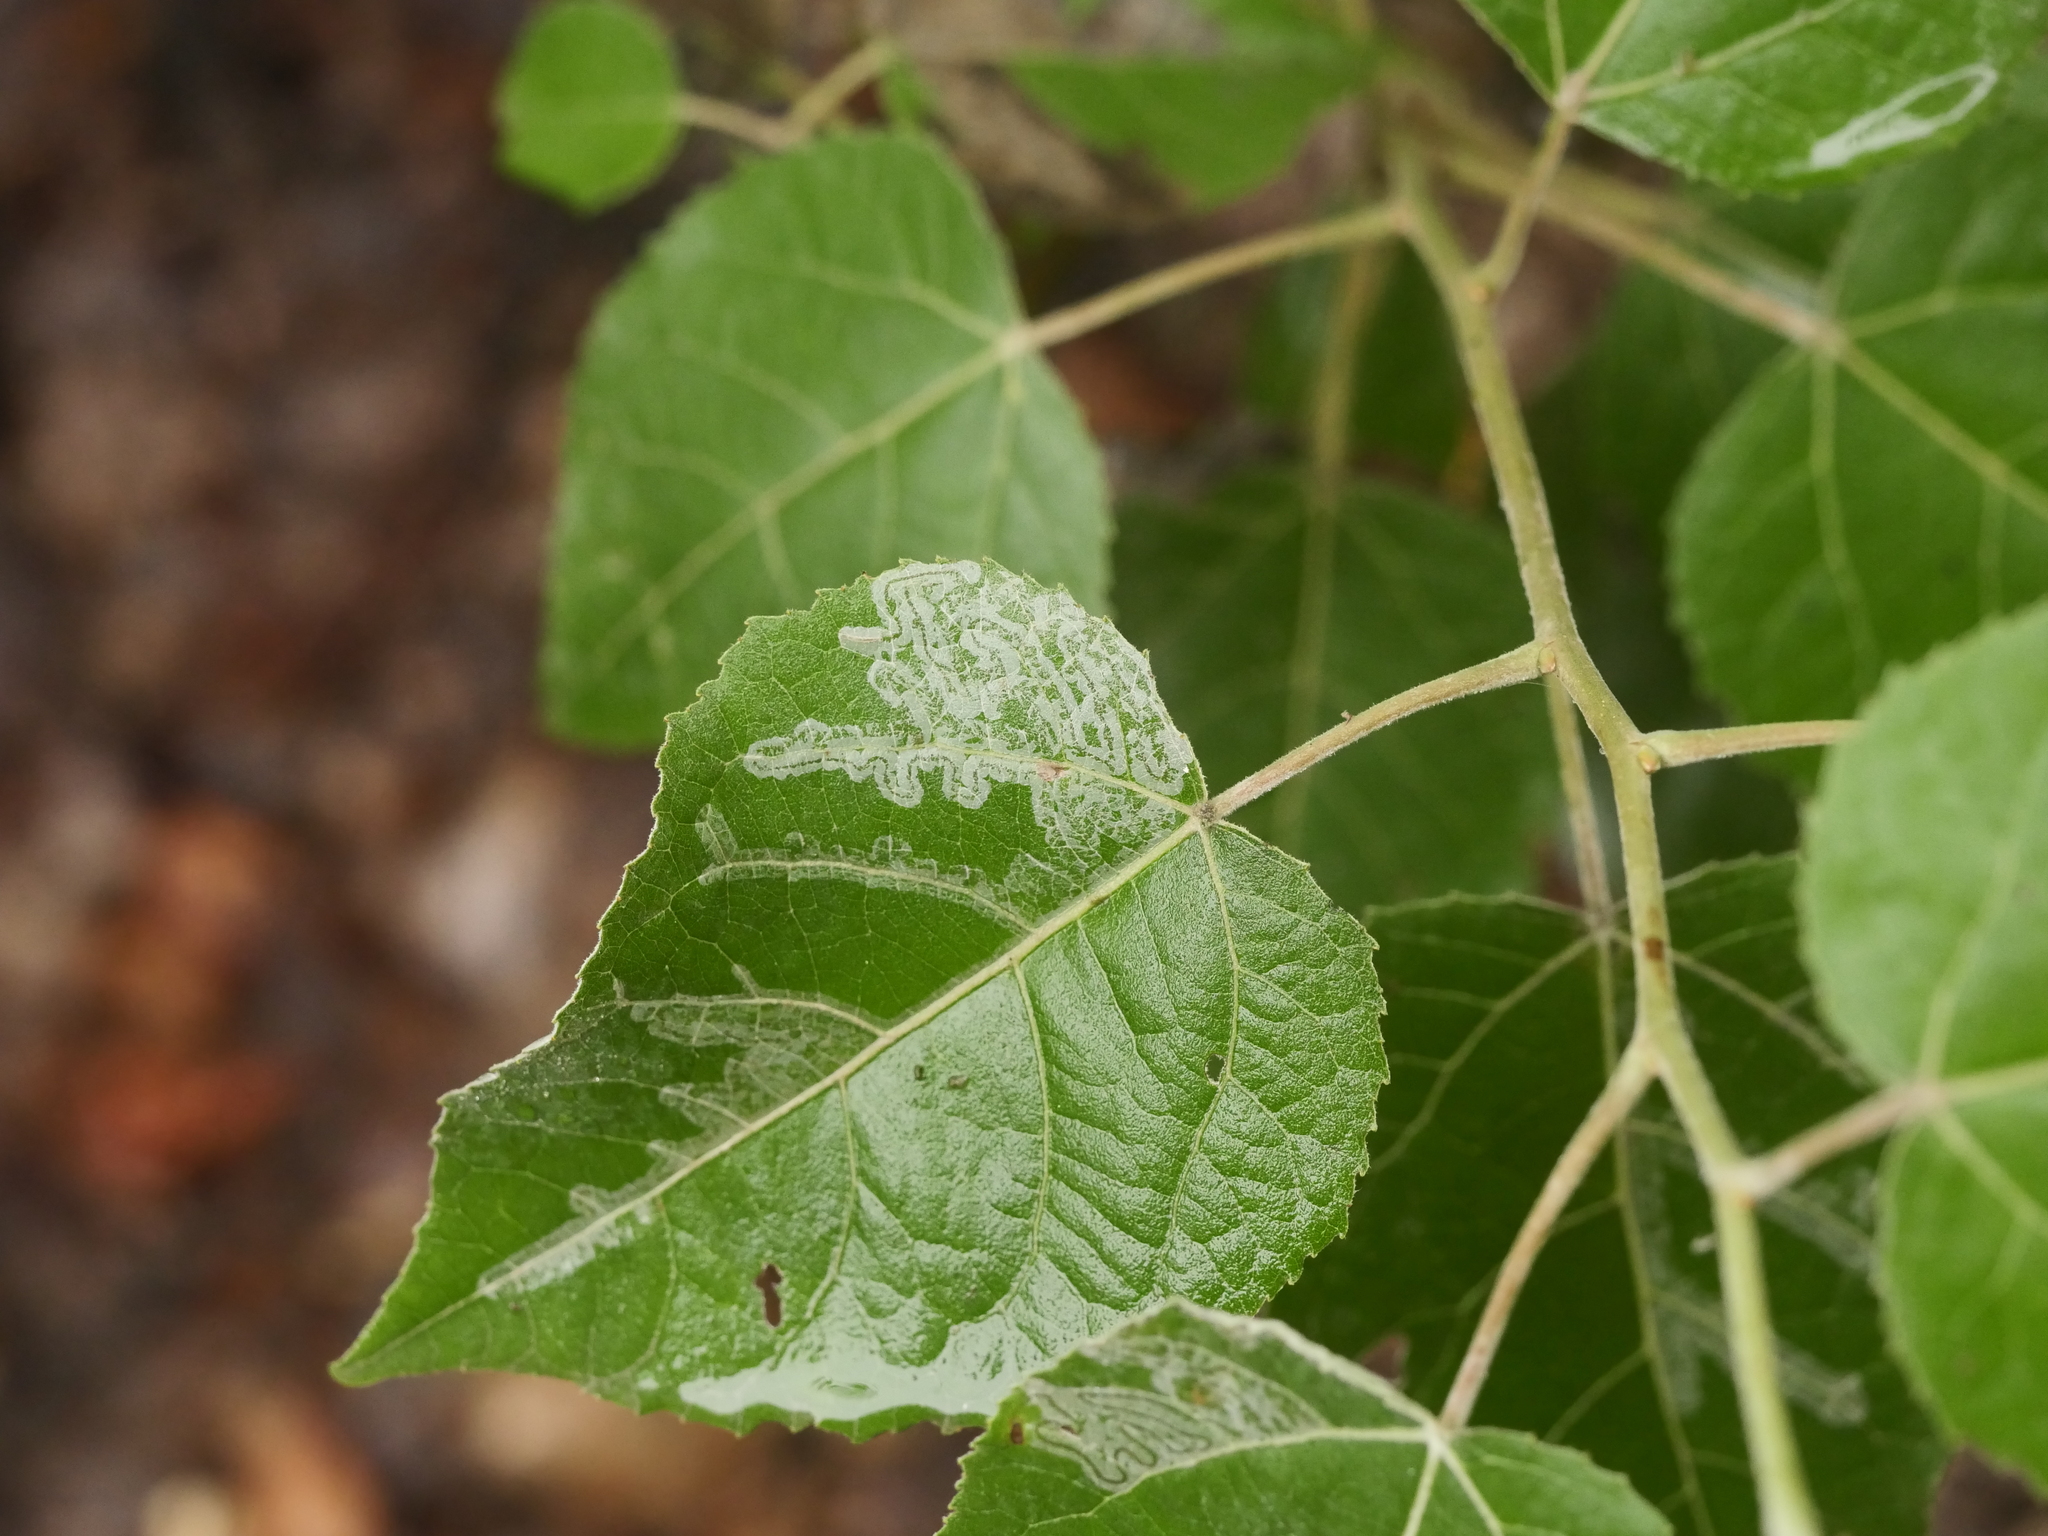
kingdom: Plantae
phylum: Tracheophyta
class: Magnoliopsida
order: Malpighiales
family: Salicaceae
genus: Populus
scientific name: Populus tremuloides
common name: Quaking aspen
